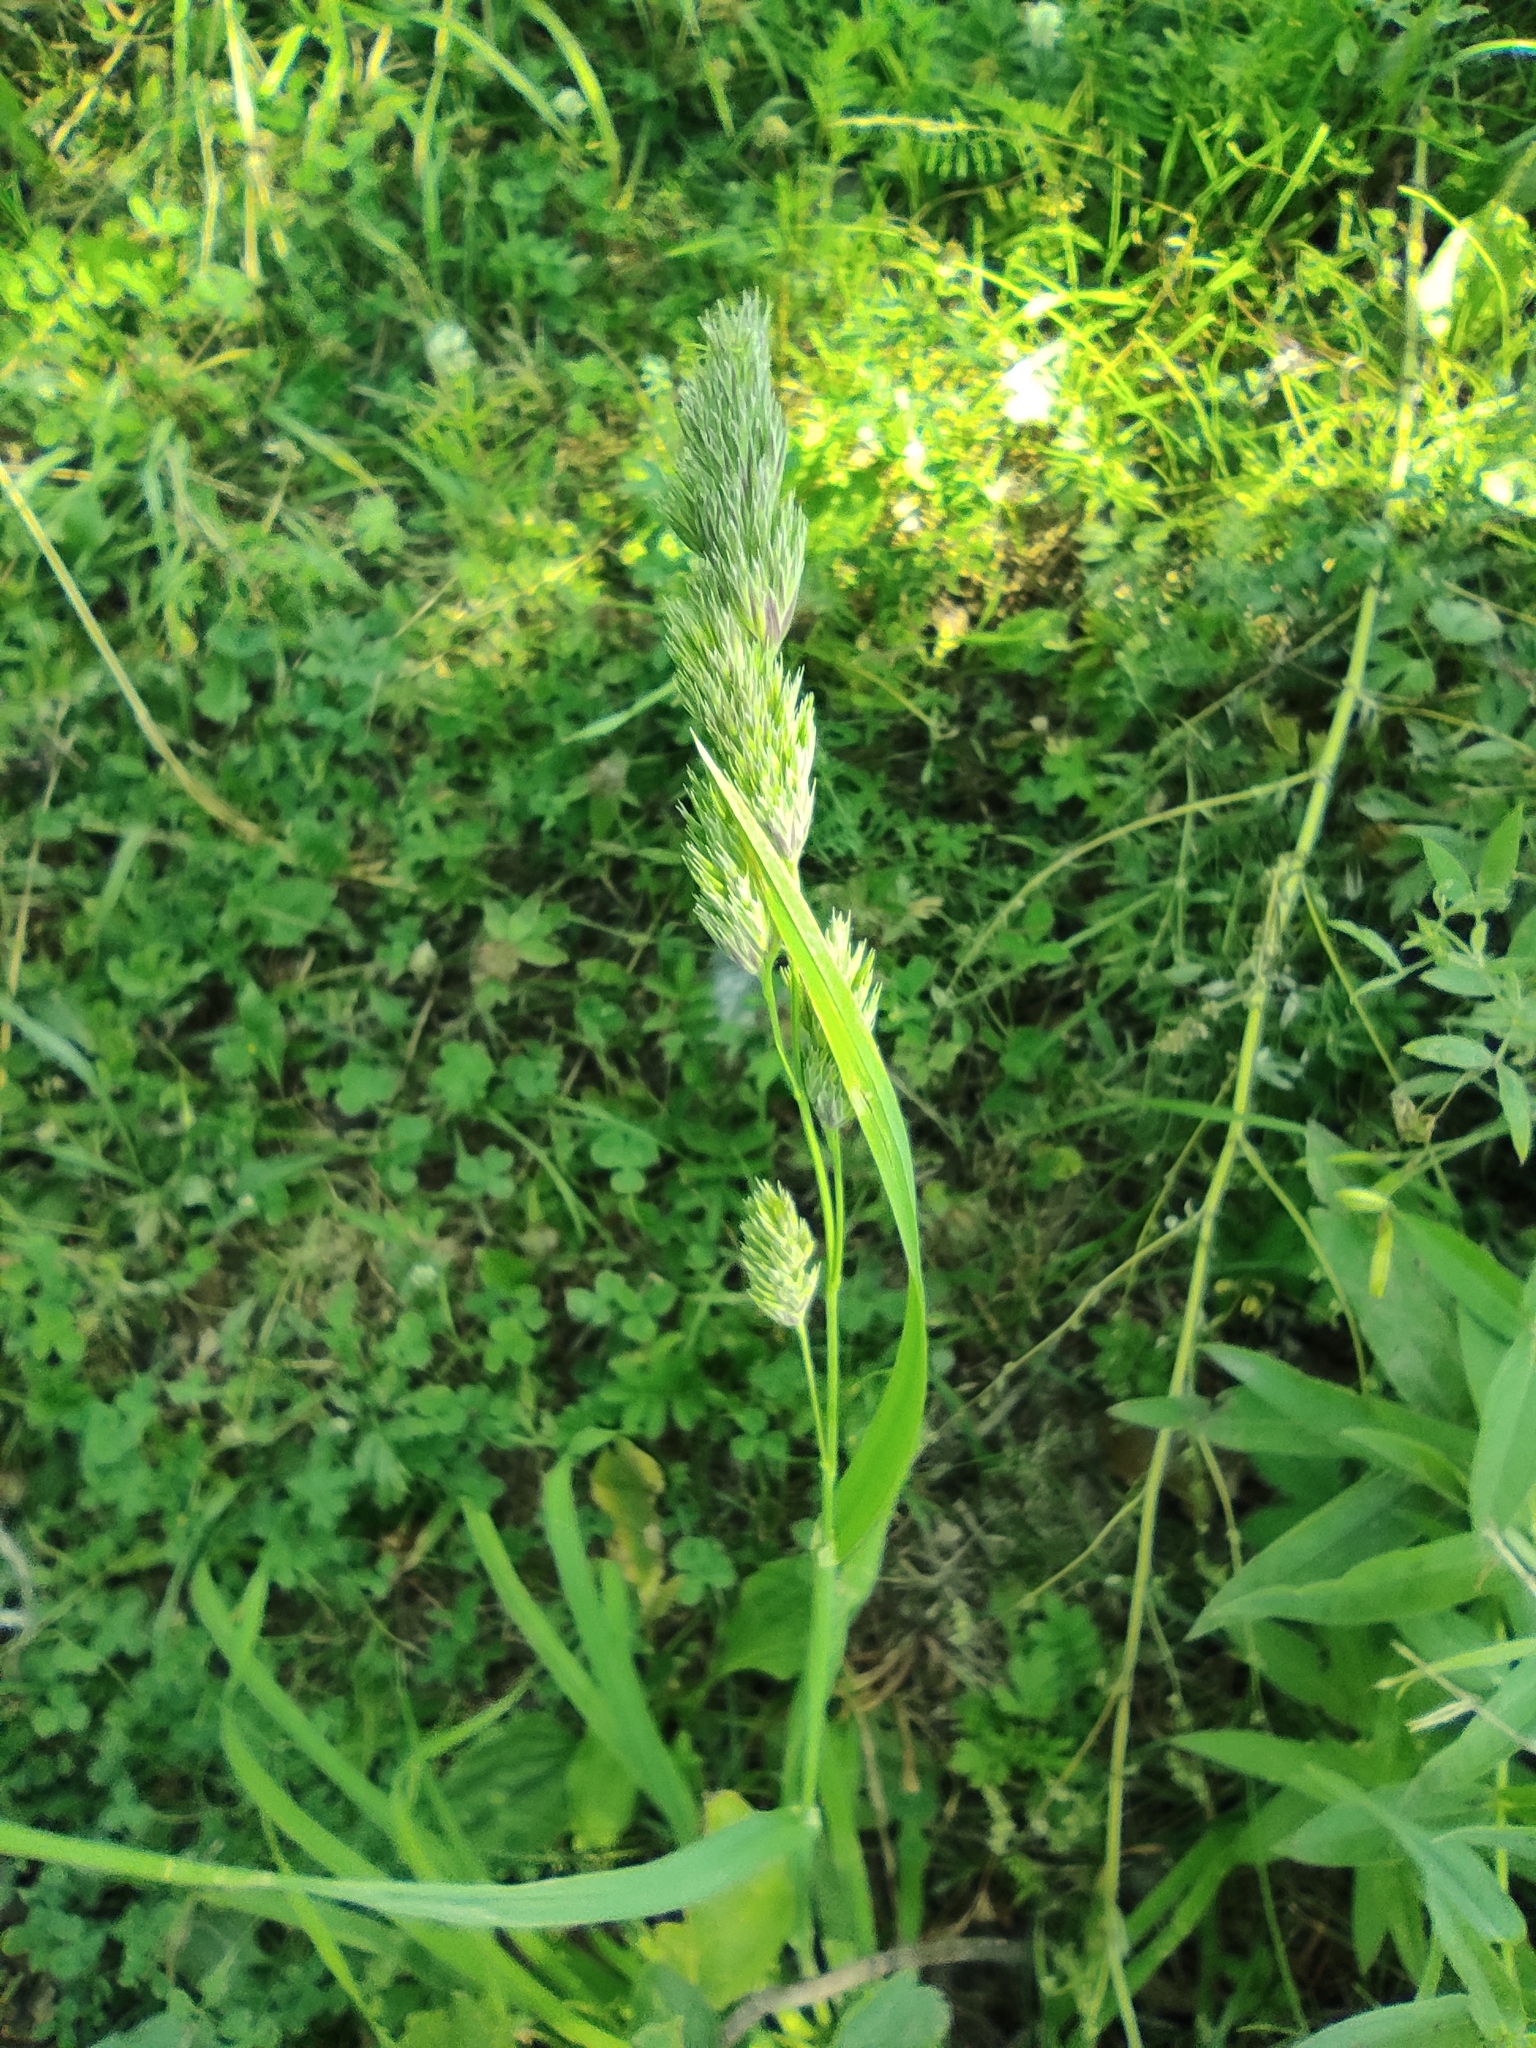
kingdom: Plantae
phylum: Tracheophyta
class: Liliopsida
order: Poales
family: Poaceae
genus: Dactylis
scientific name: Dactylis glomerata
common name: Orchardgrass
